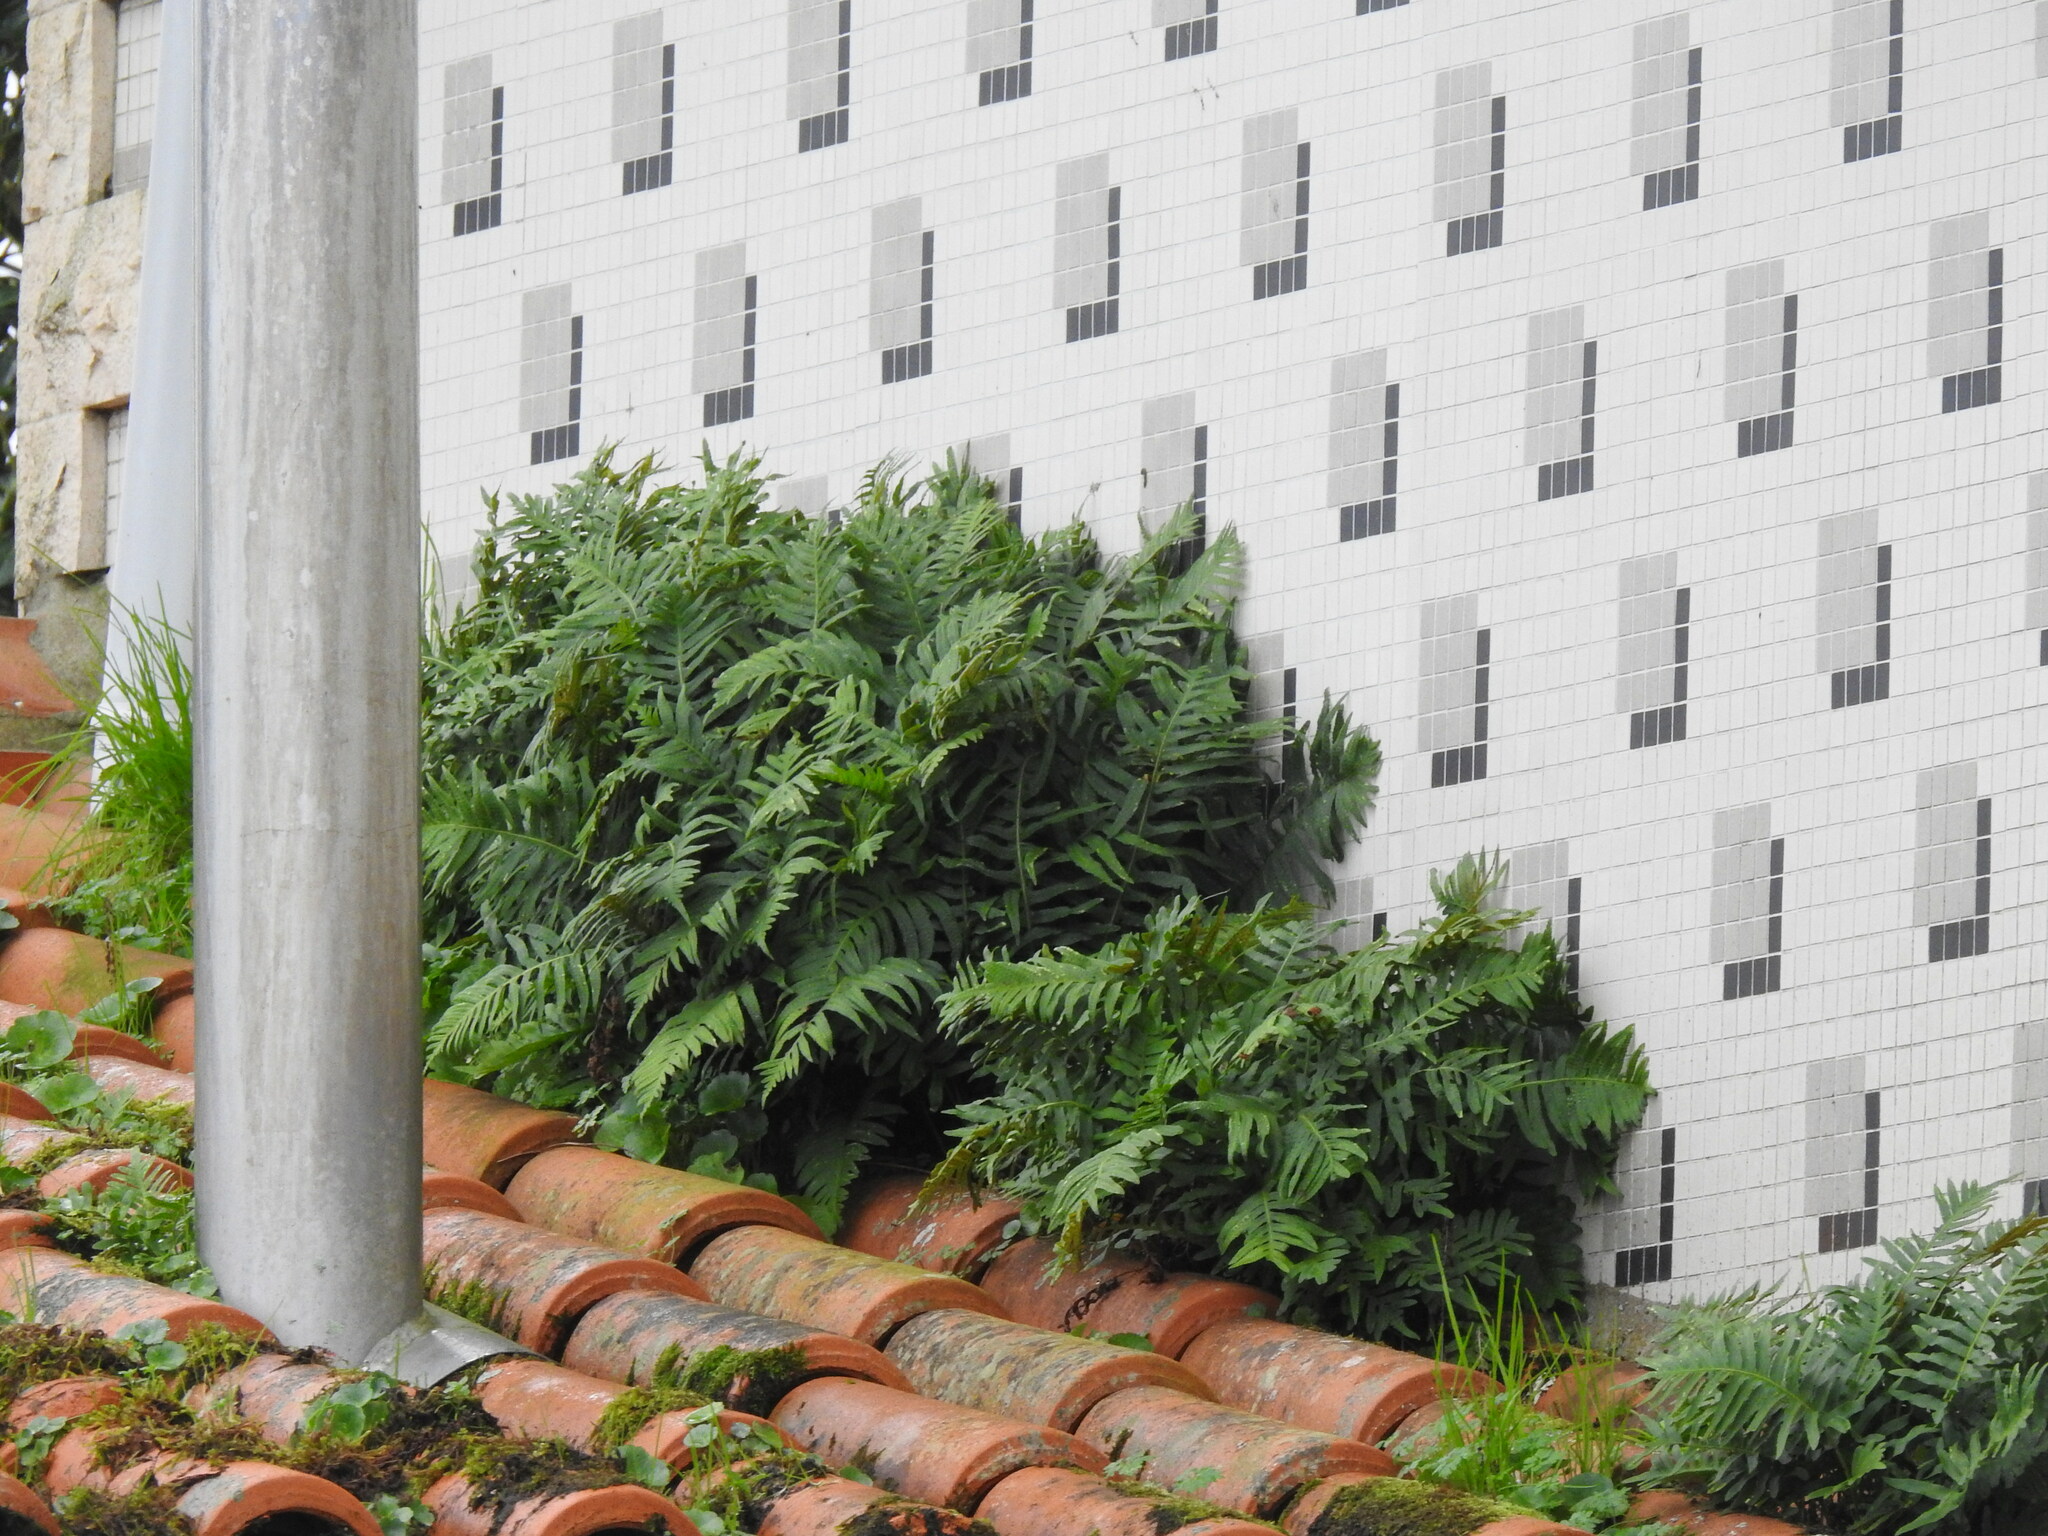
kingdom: Plantae
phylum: Tracheophyta
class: Polypodiopsida
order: Polypodiales
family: Polypodiaceae
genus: Polypodium
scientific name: Polypodium cambricum
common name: Southern polypody
